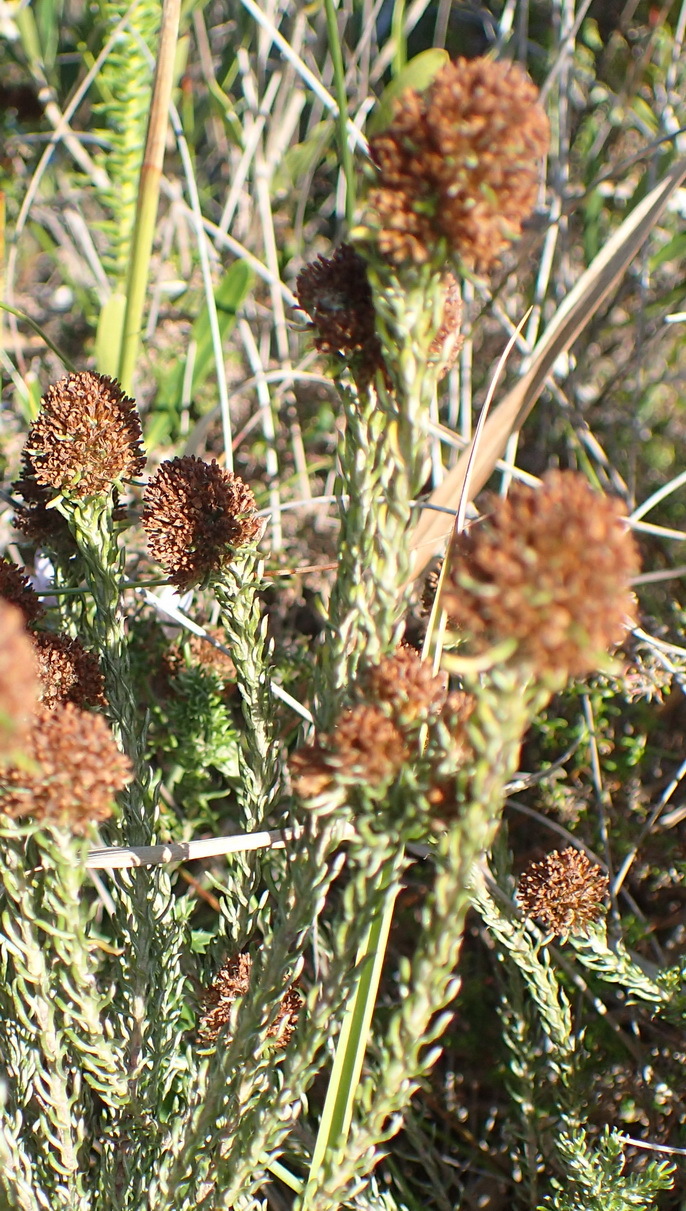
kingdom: Plantae
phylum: Tracheophyta
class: Magnoliopsida
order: Asterales
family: Asteraceae
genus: Disparago
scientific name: Disparago anomala
